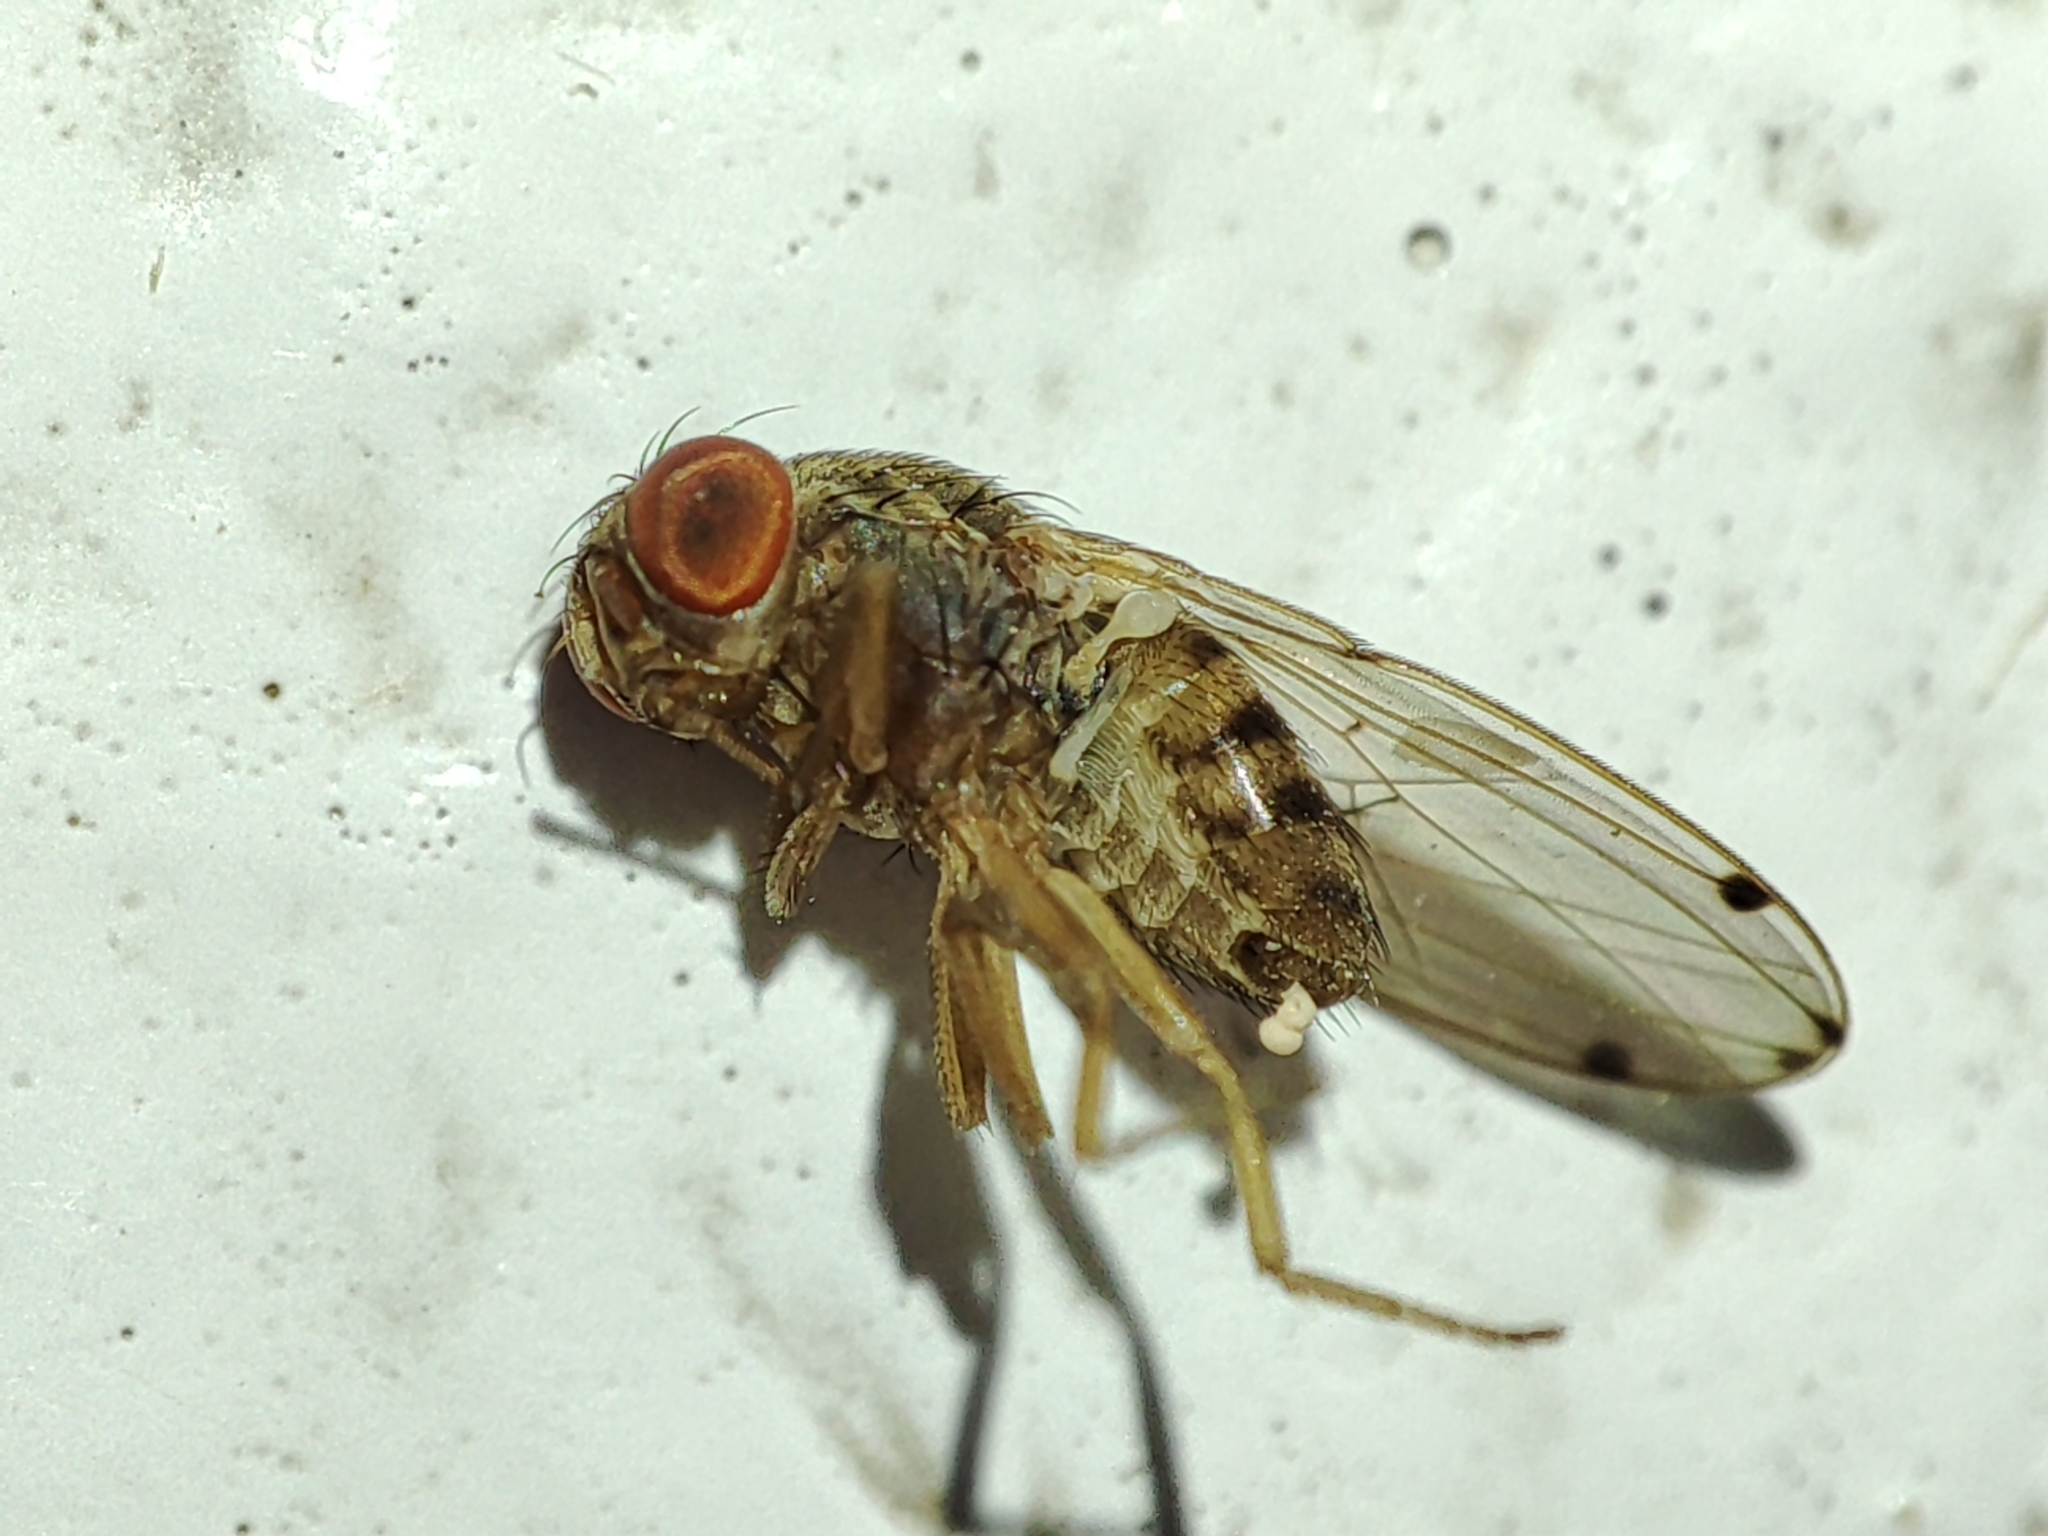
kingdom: Animalia
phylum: Arthropoda
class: Insecta
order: Diptera
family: Drosophilidae
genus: Gitona
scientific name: Gitona distigma
